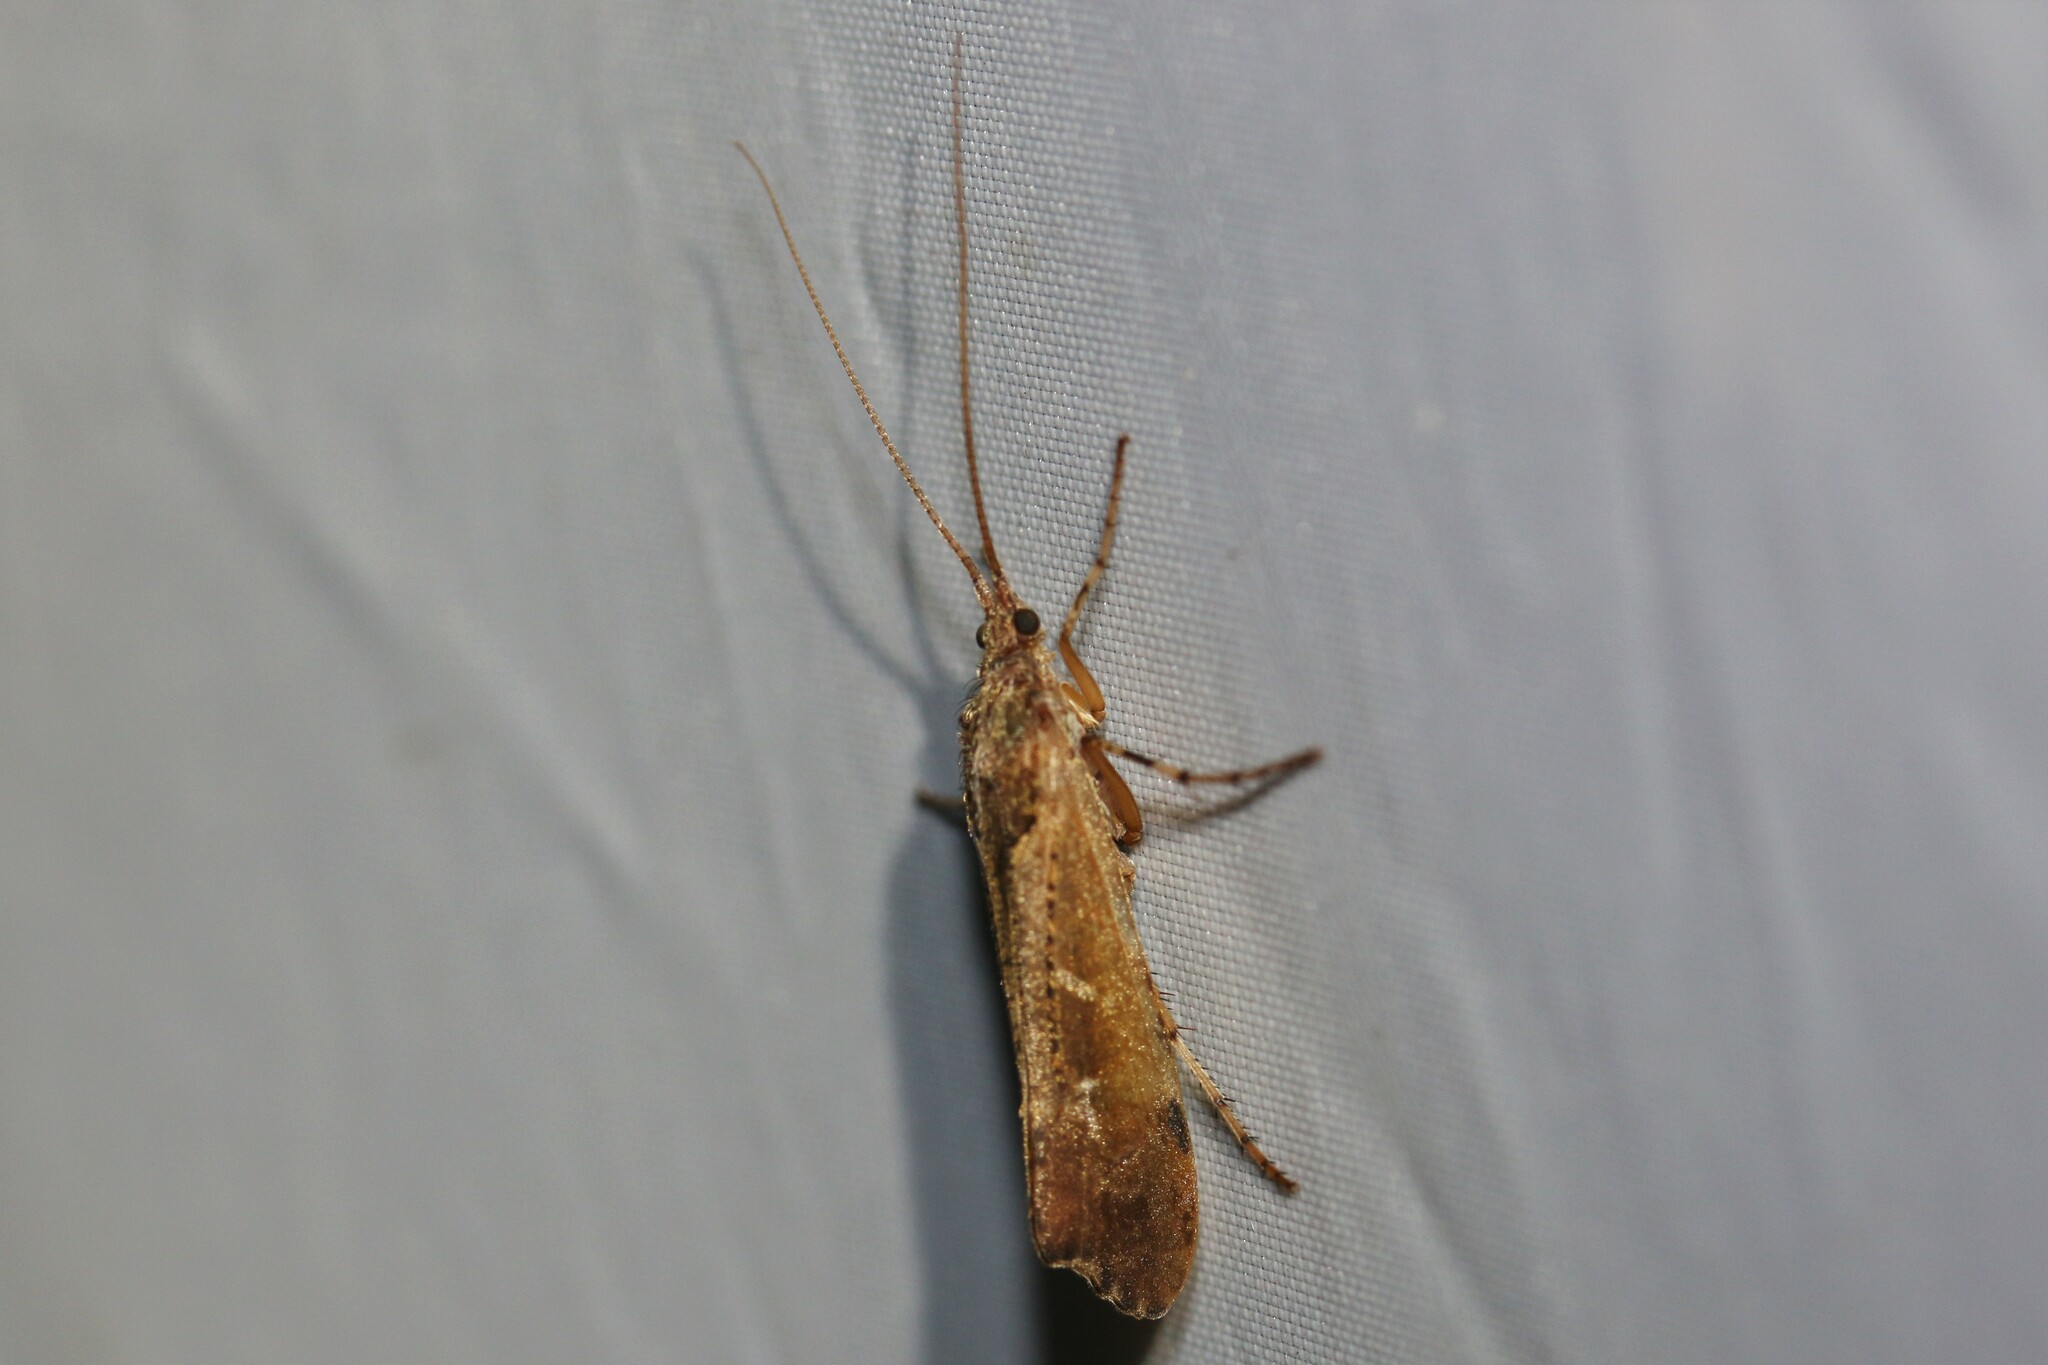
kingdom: Animalia
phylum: Arthropoda
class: Insecta
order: Trichoptera
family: Limnephilidae
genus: Glyphotaelius
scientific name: Glyphotaelius pellucidus
